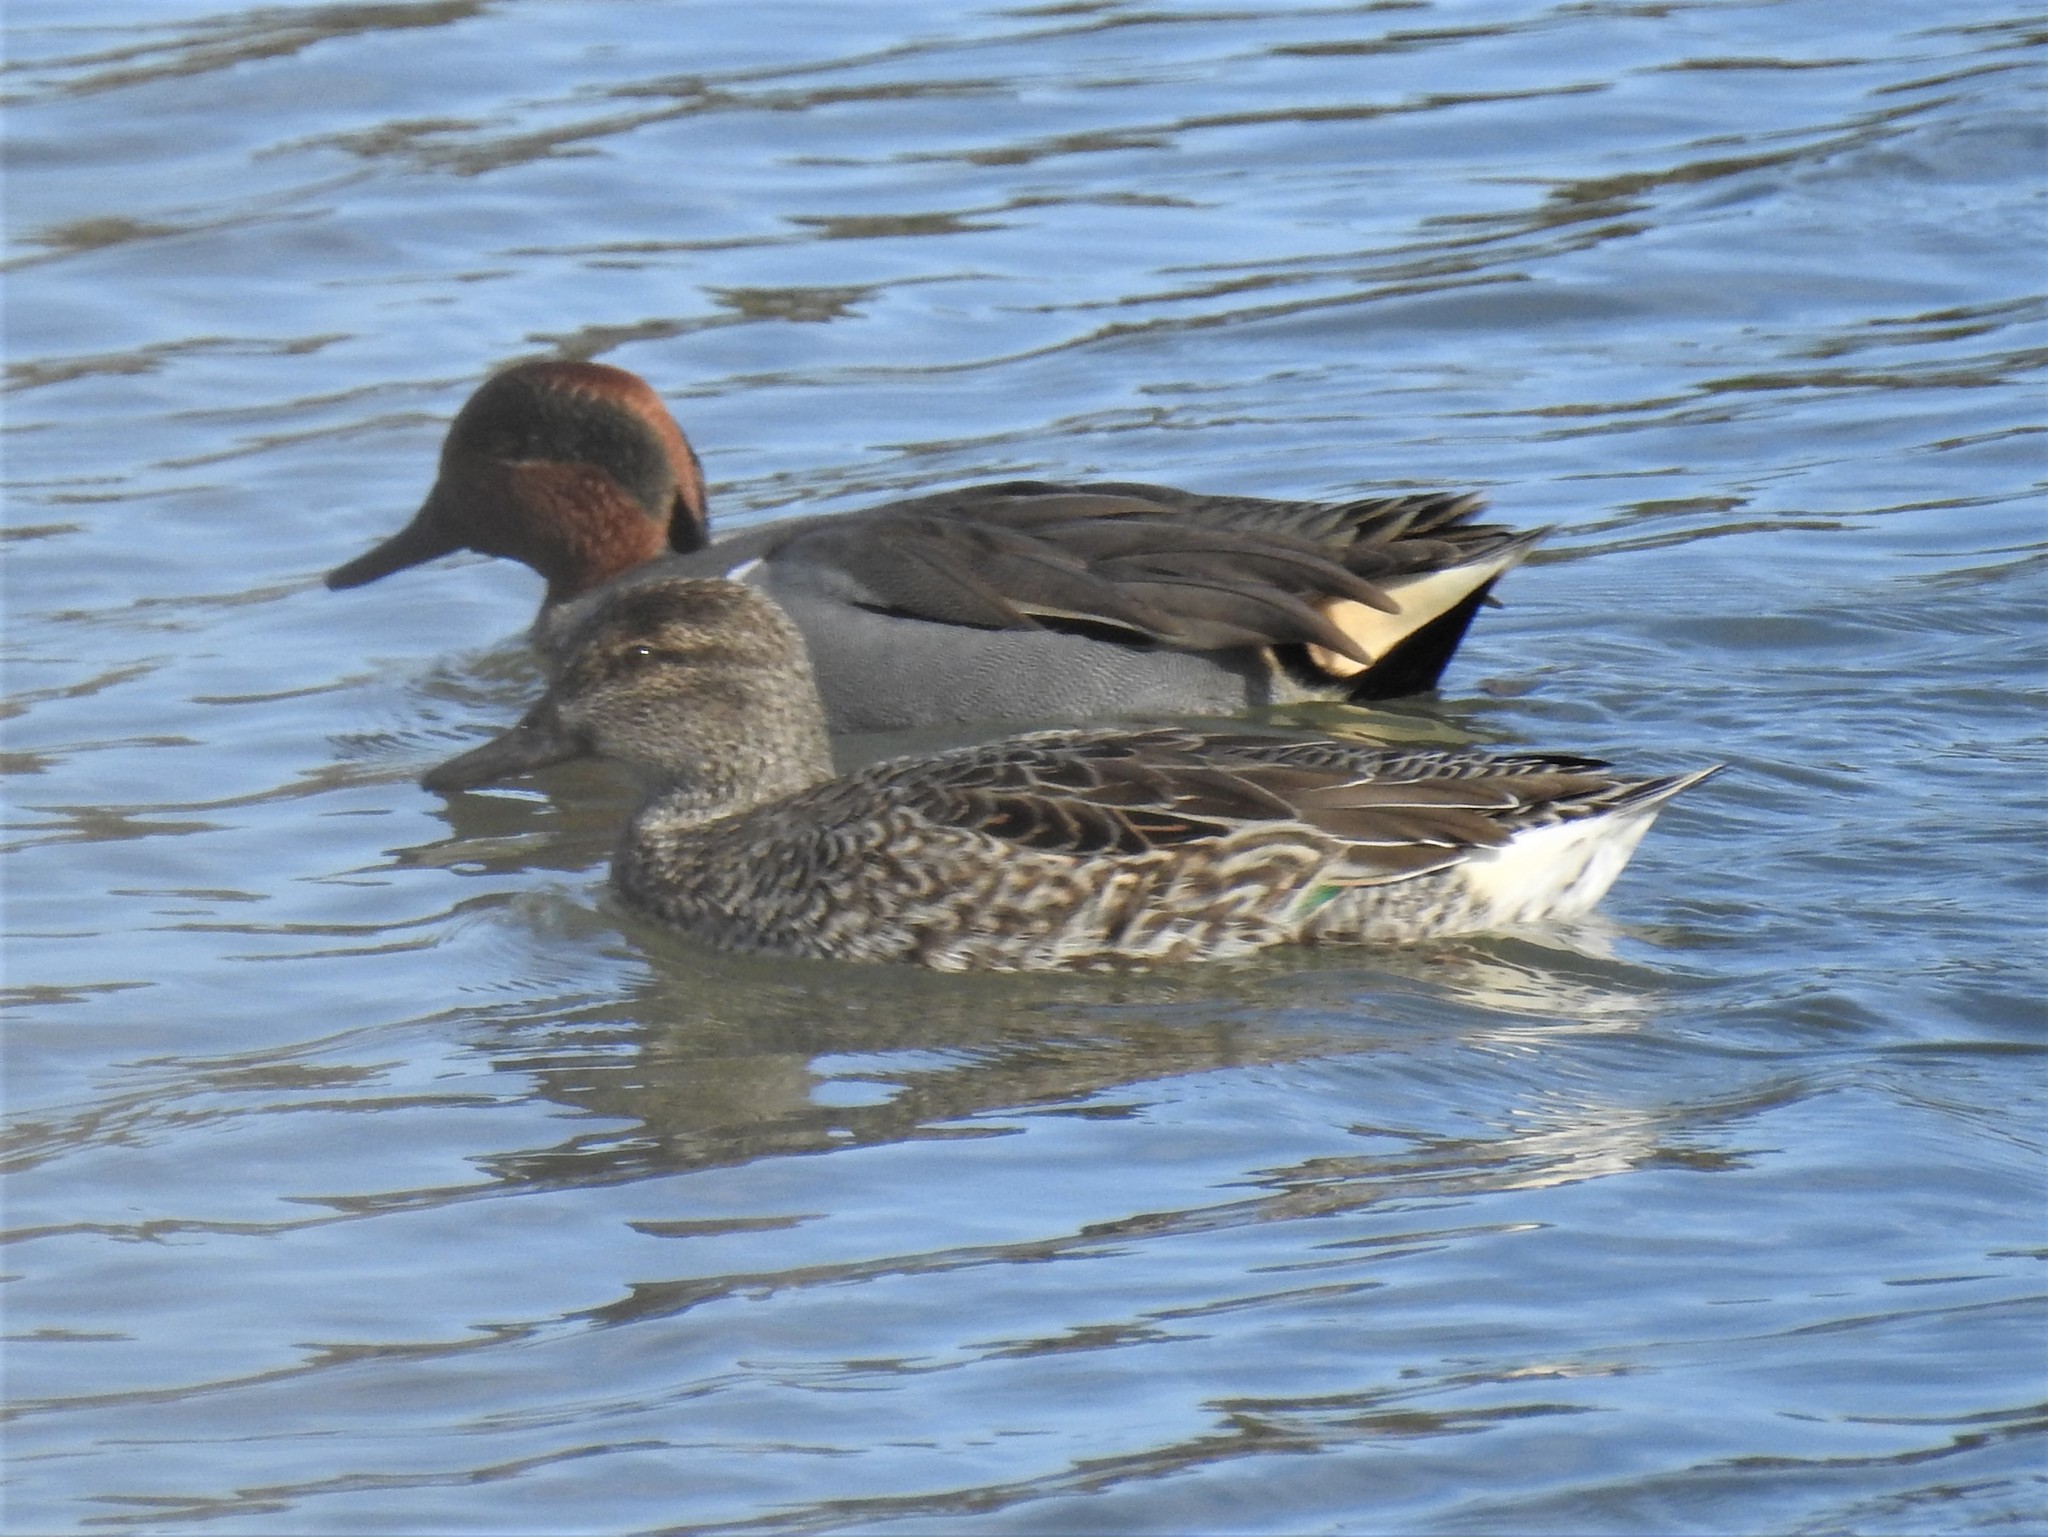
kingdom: Animalia
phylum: Chordata
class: Aves
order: Anseriformes
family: Anatidae
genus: Anas
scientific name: Anas crecca
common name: Eurasian teal
